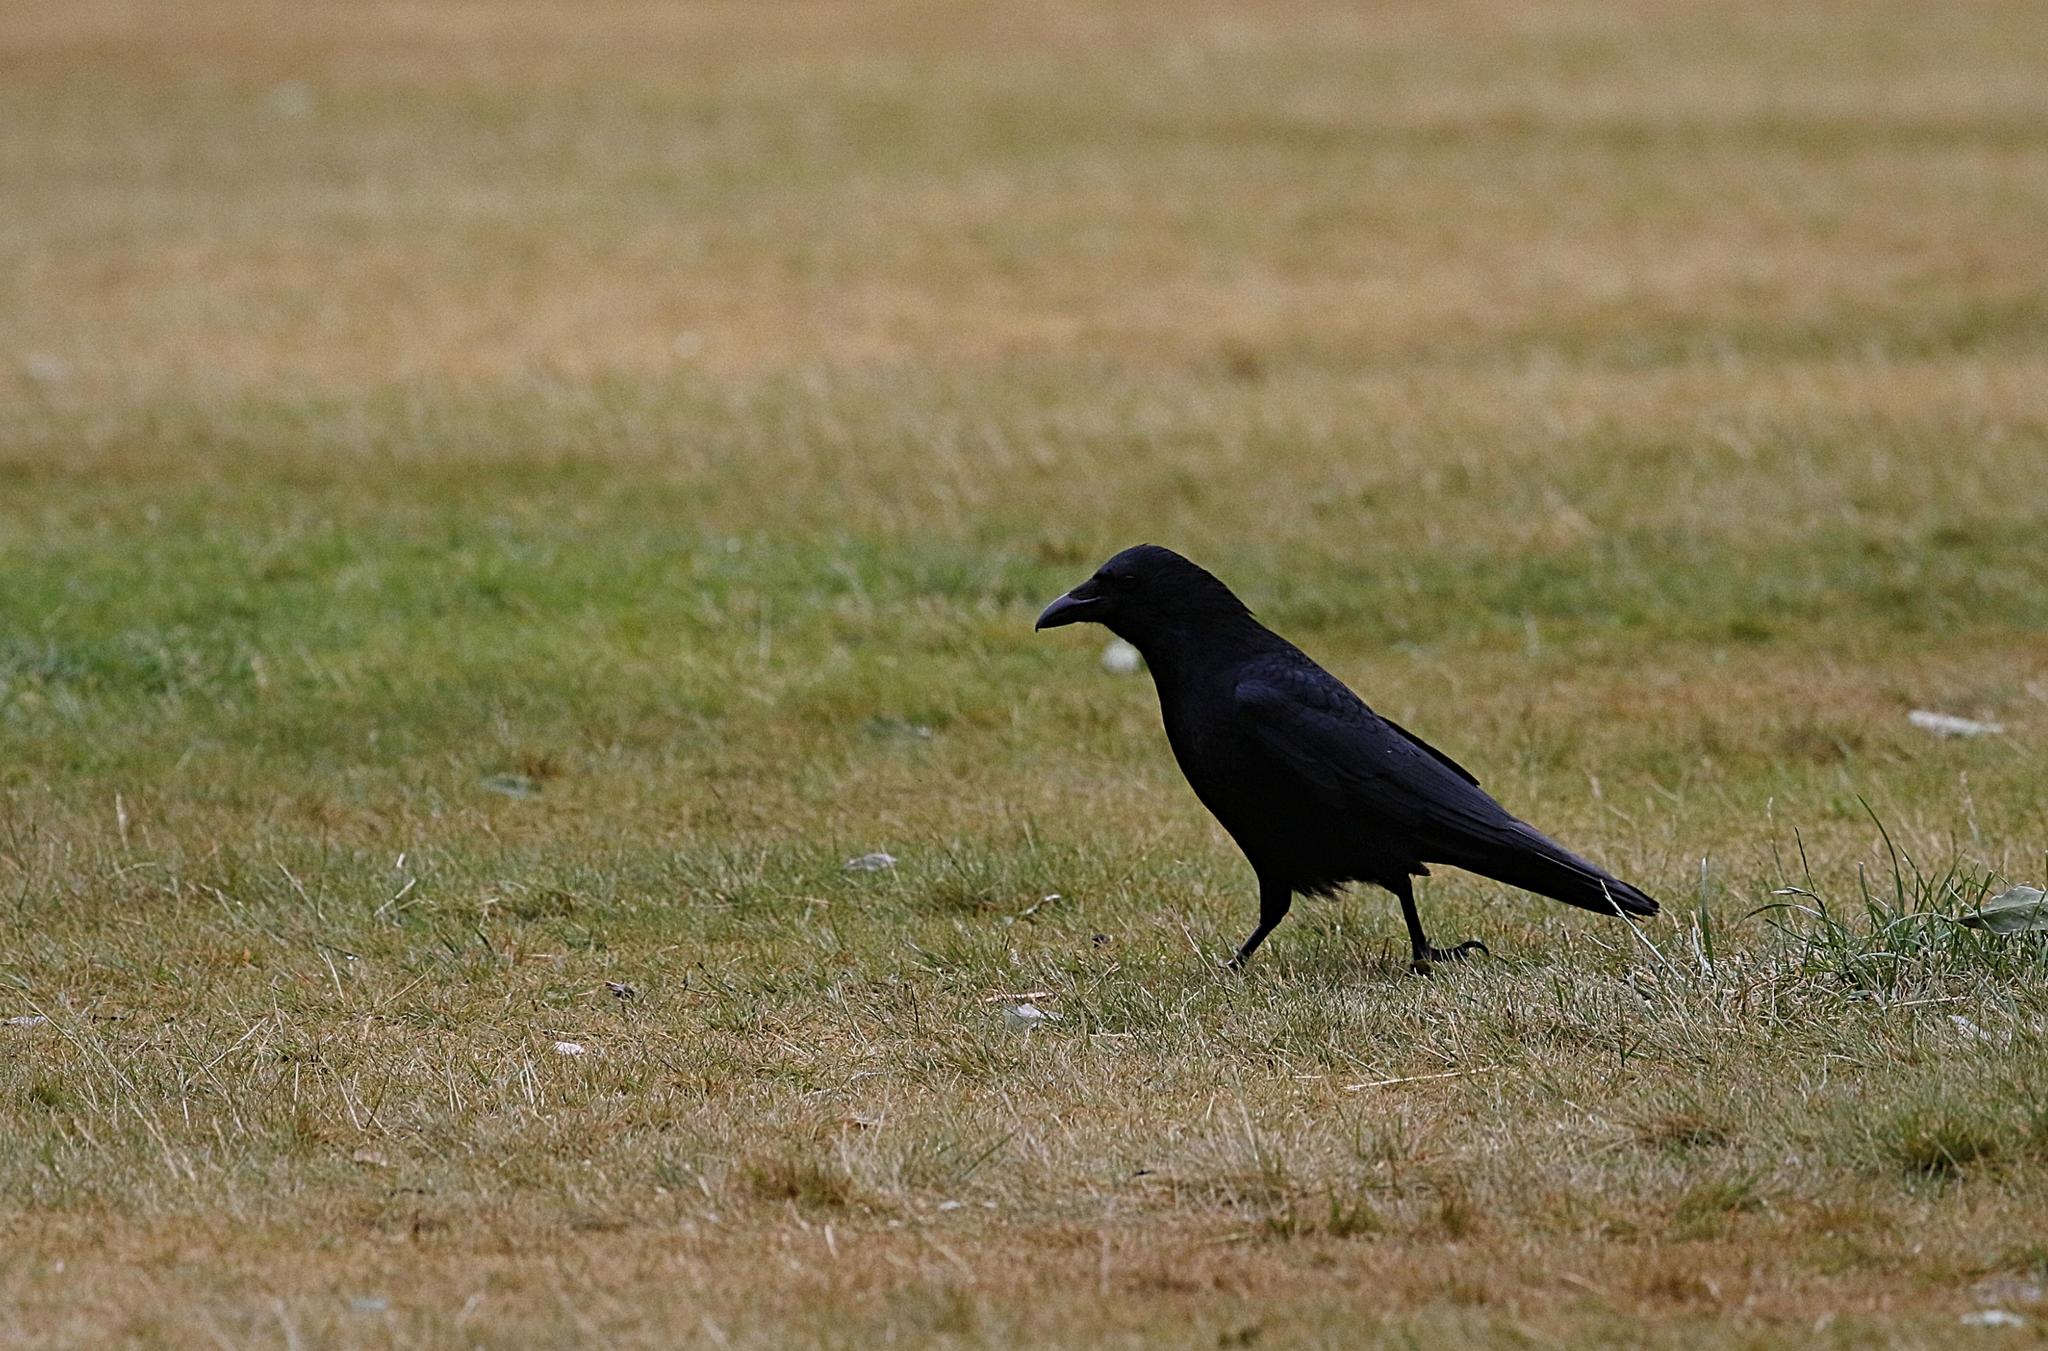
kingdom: Animalia
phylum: Chordata
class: Aves
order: Passeriformes
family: Corvidae
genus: Corvus
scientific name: Corvus corone
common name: Carrion crow
